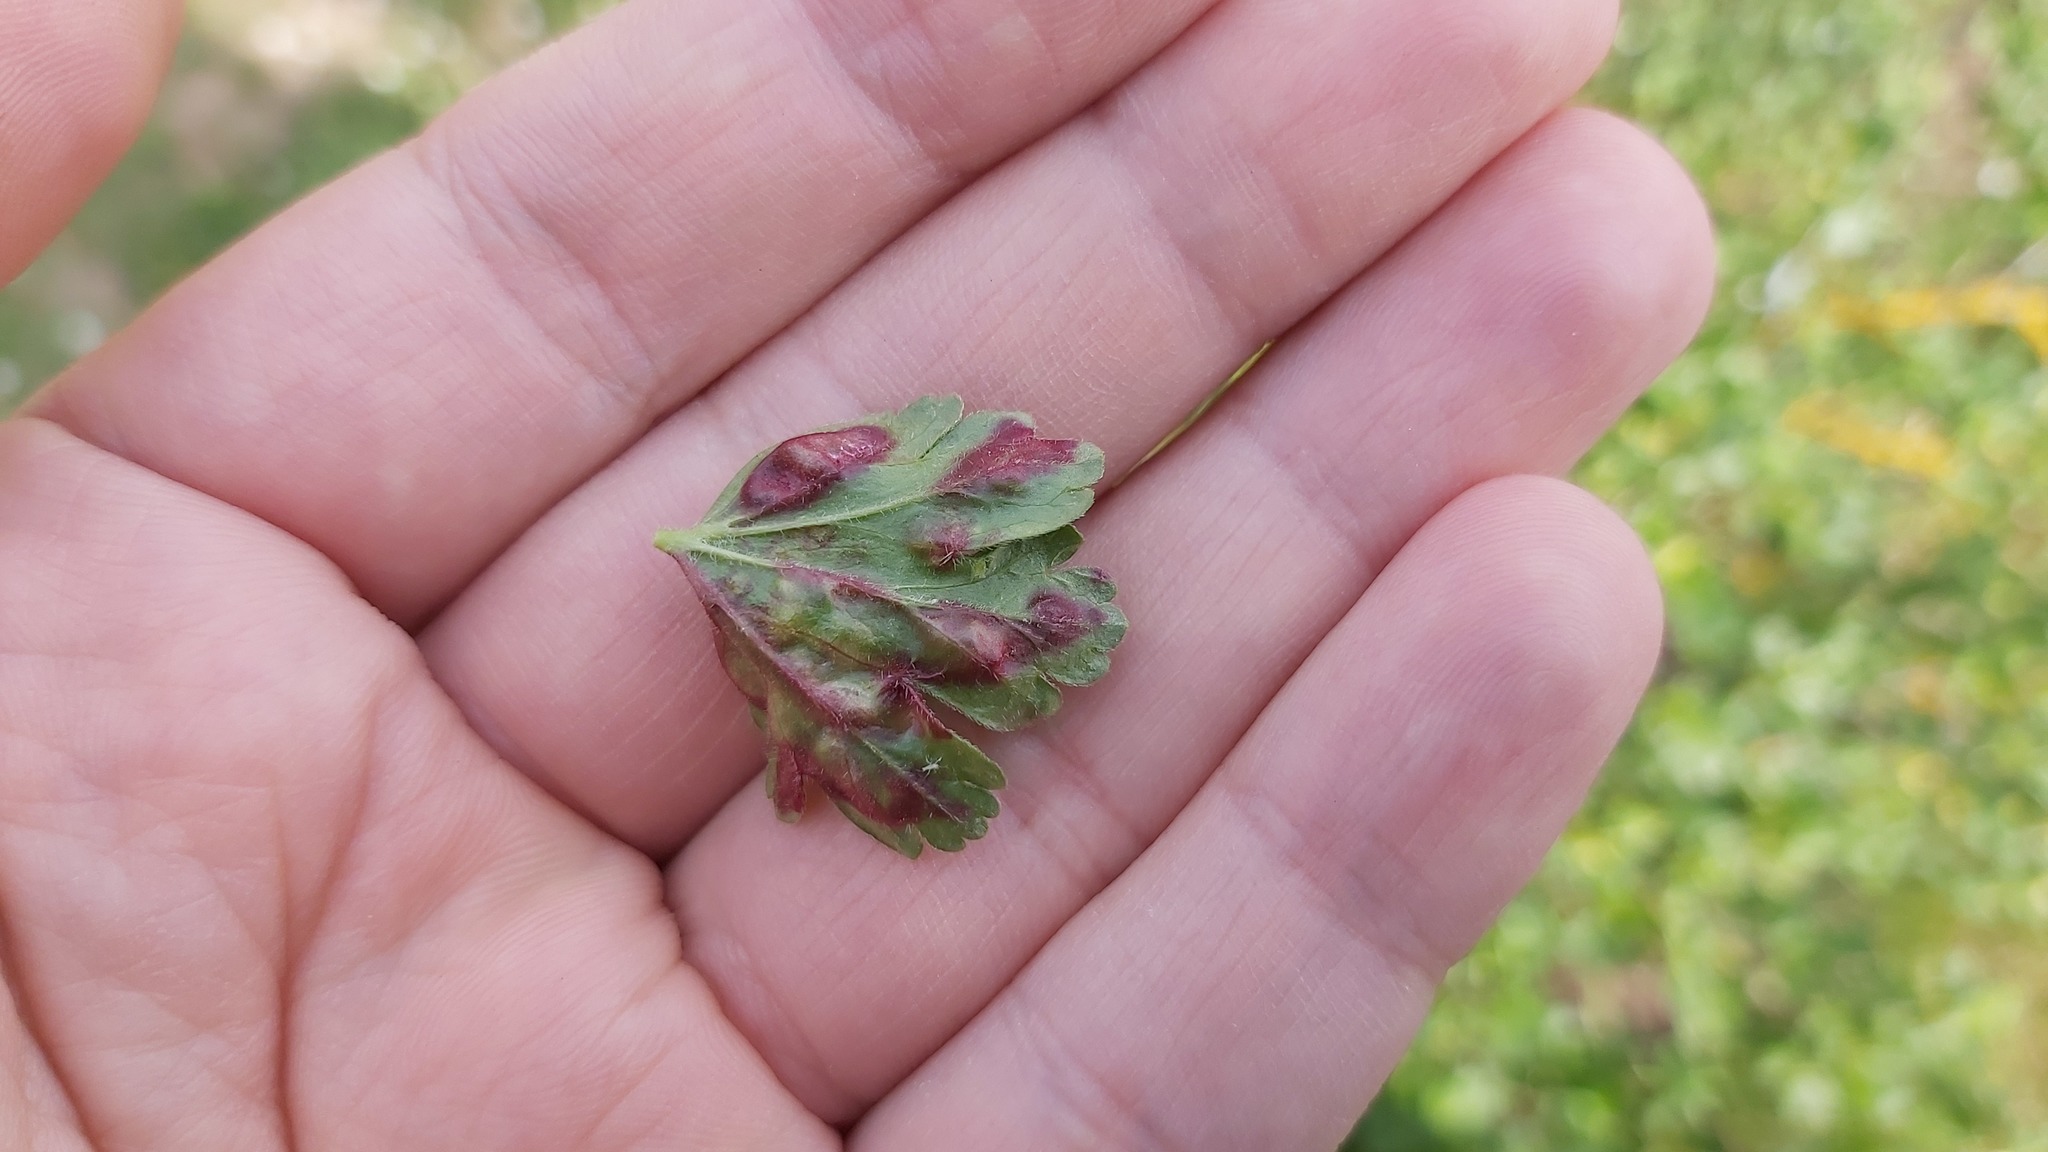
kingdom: Animalia
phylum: Arthropoda
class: Insecta
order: Hemiptera
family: Aphididae
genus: Cryptomyzus
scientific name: Cryptomyzus ribis
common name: Currant aphid
